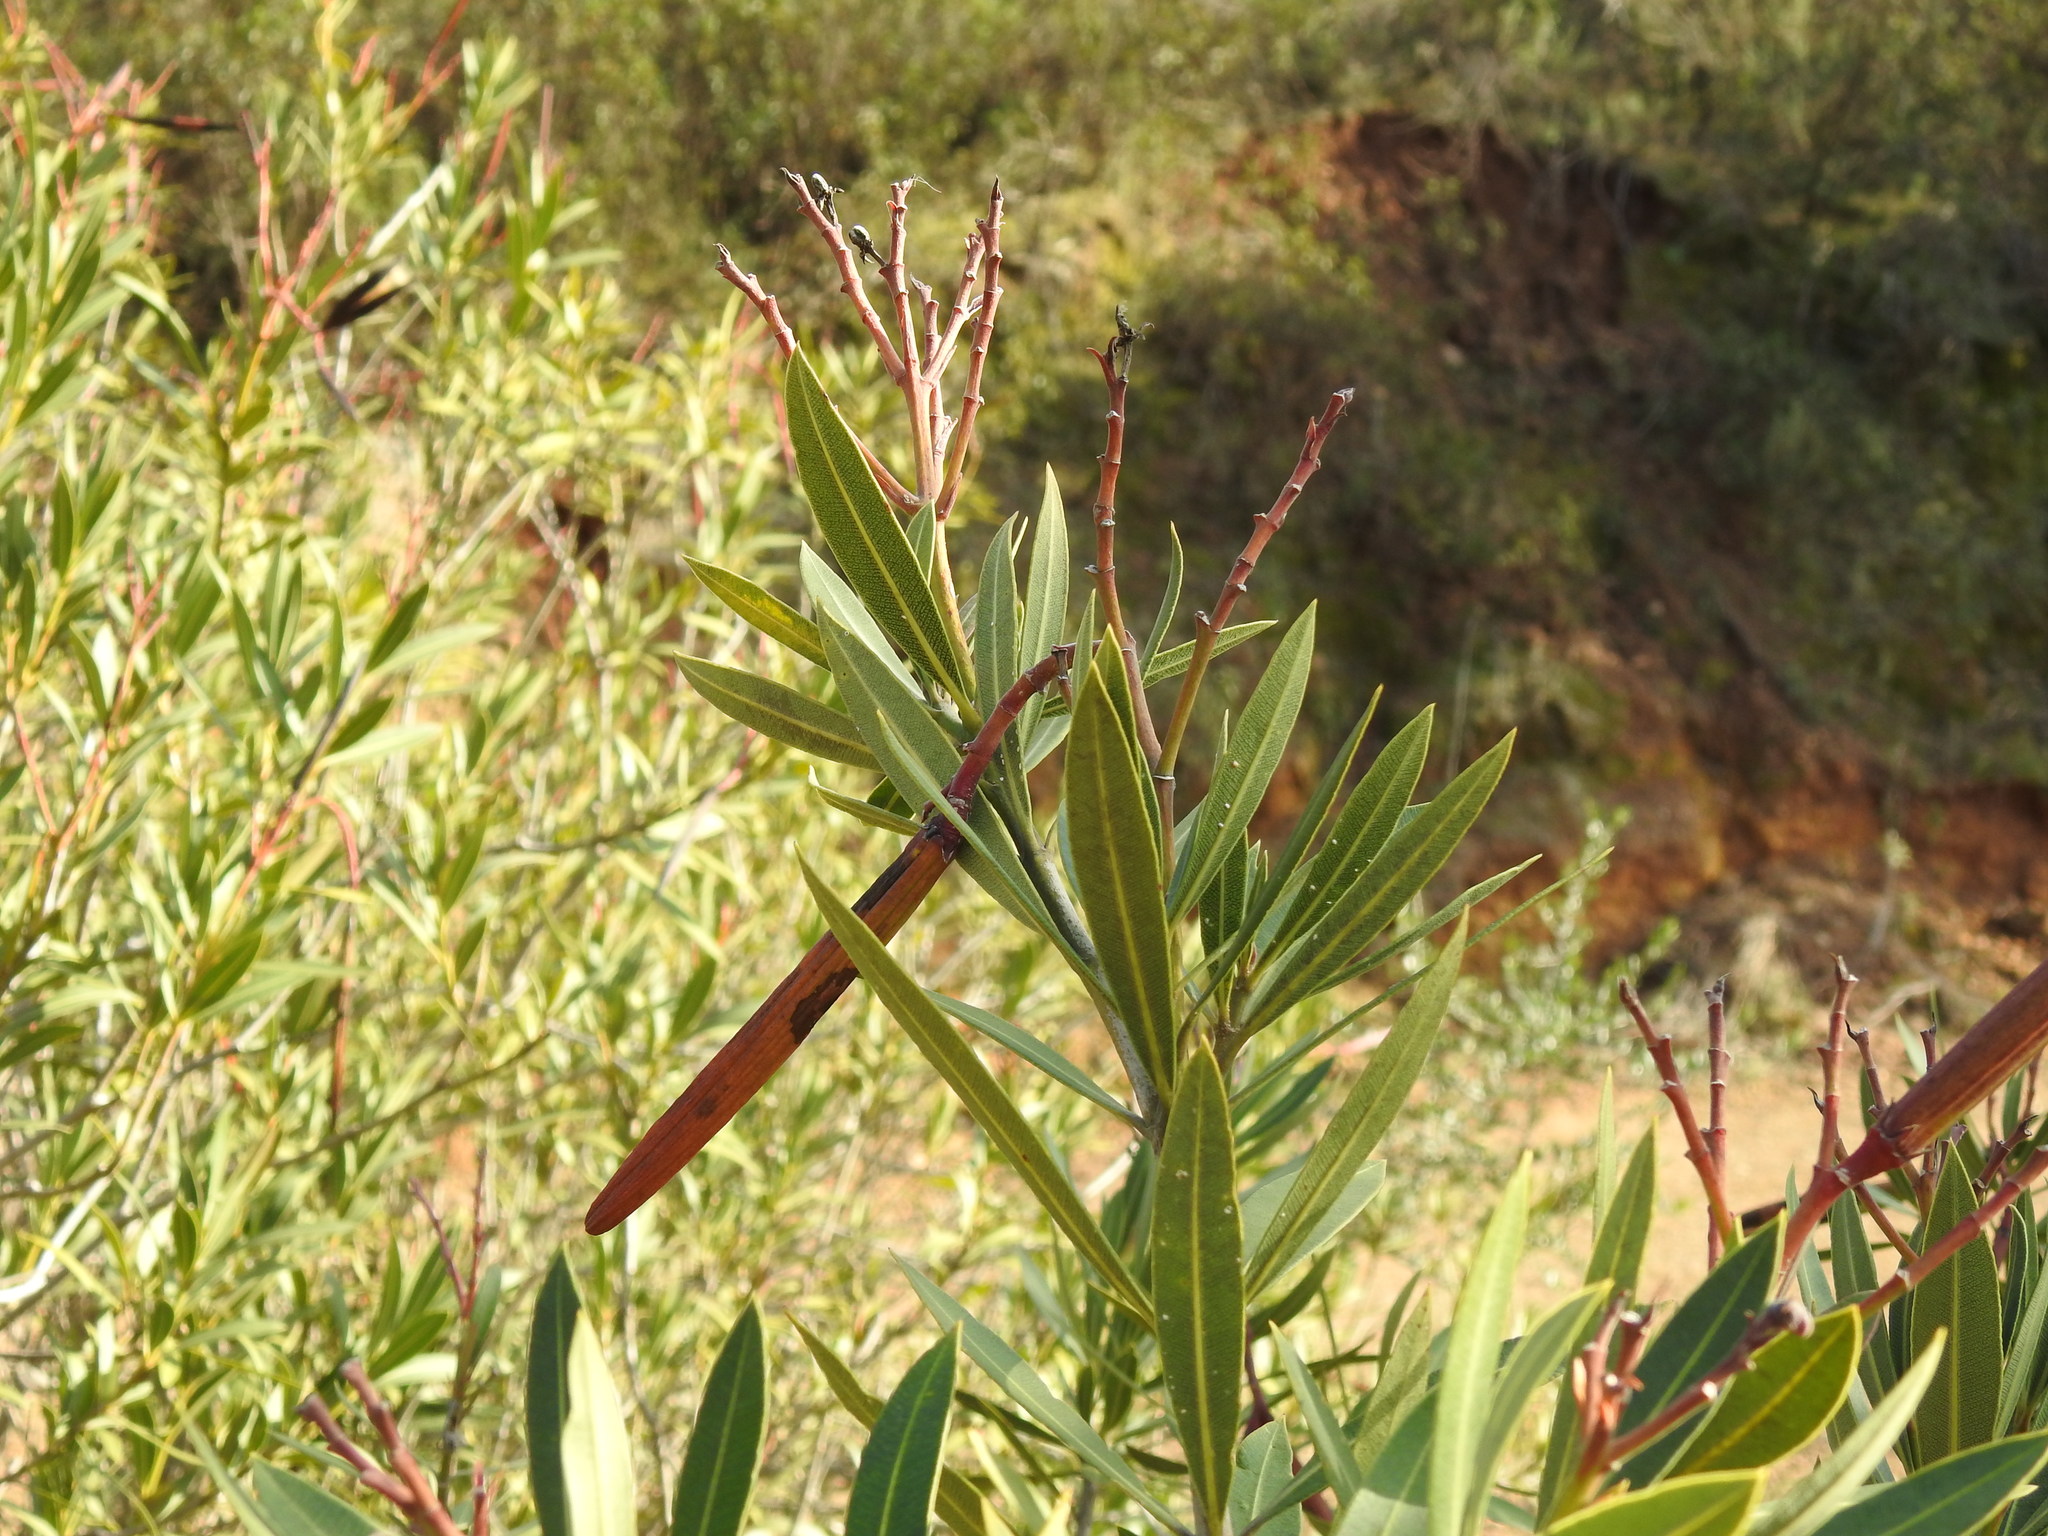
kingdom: Plantae
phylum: Tracheophyta
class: Magnoliopsida
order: Gentianales
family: Apocynaceae
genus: Nerium
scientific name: Nerium oleander
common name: Oleander
